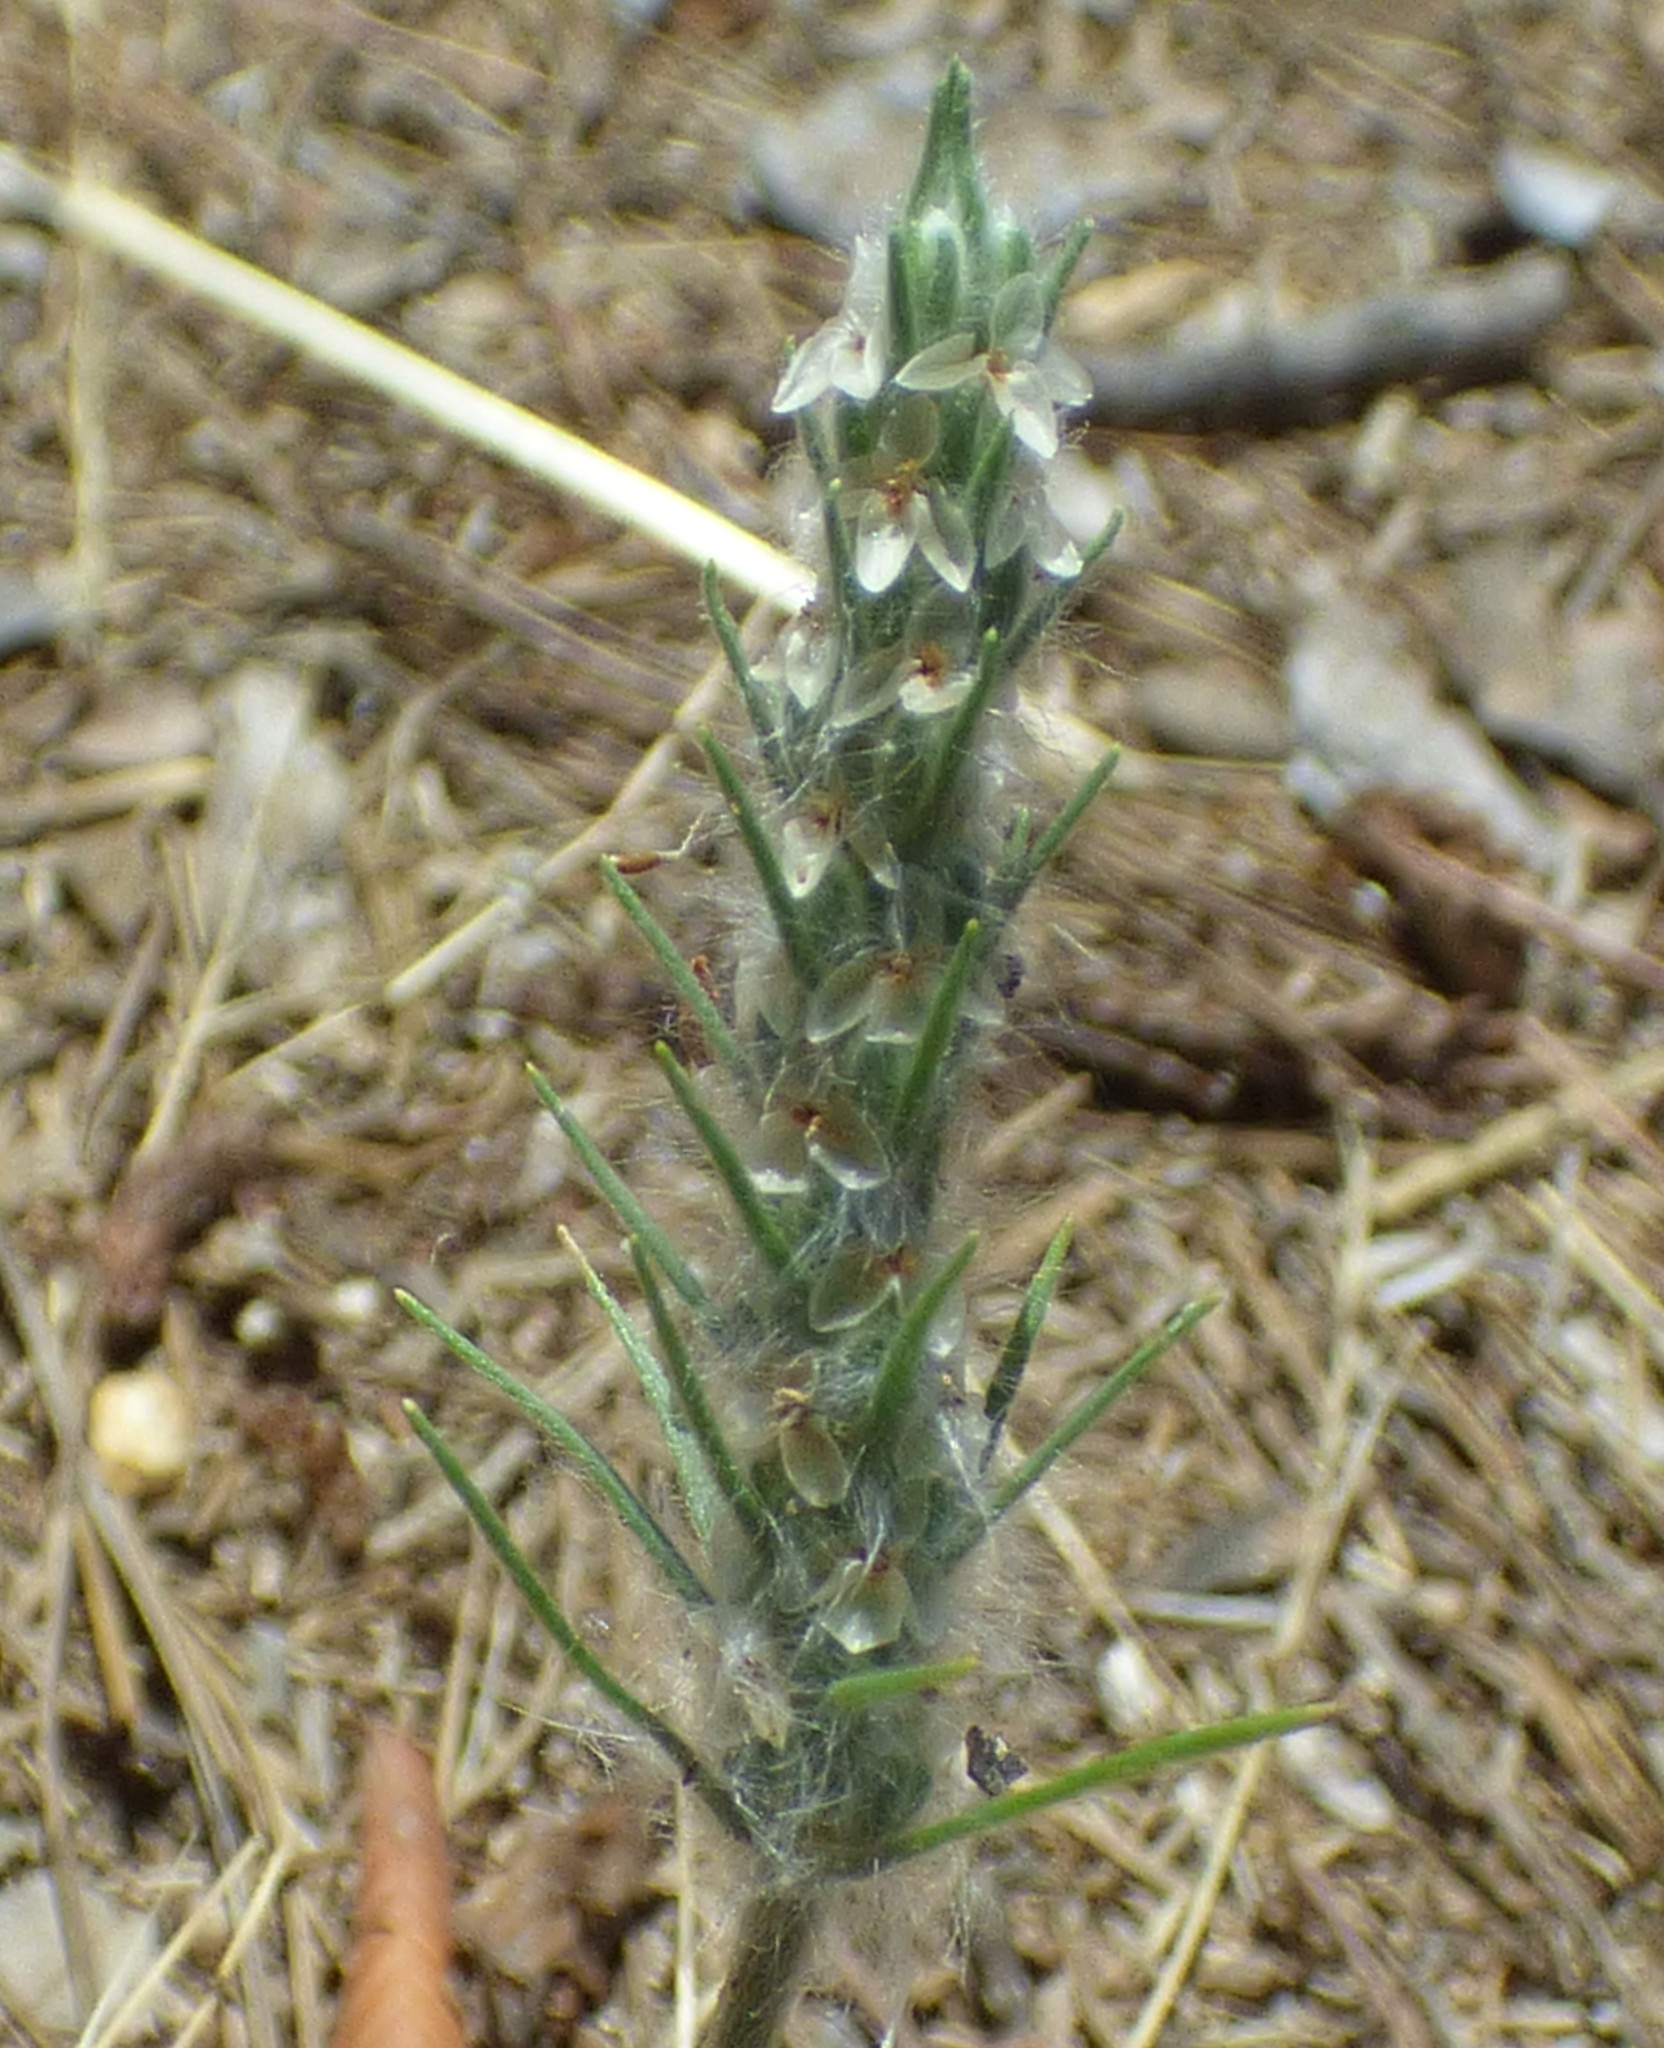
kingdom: Plantae
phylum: Tracheophyta
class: Magnoliopsida
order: Lamiales
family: Plantaginaceae
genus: Plantago
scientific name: Plantago aristata
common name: Bracted plantain
